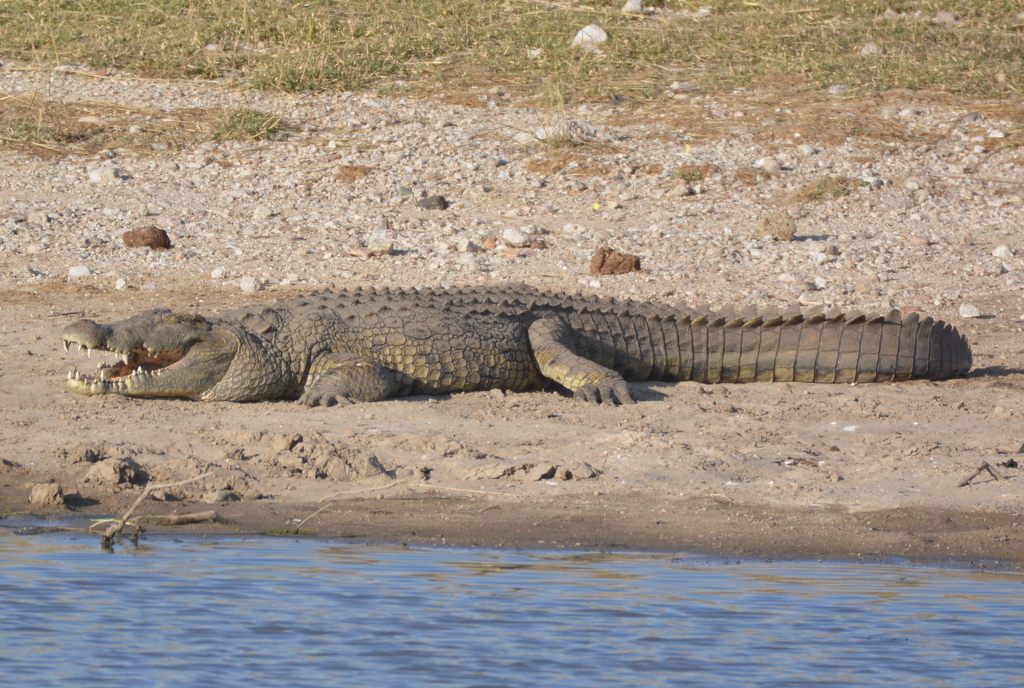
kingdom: Animalia
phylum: Chordata
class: Crocodylia
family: Crocodylidae
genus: Crocodylus
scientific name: Crocodylus niloticus
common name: Nile crocodile
